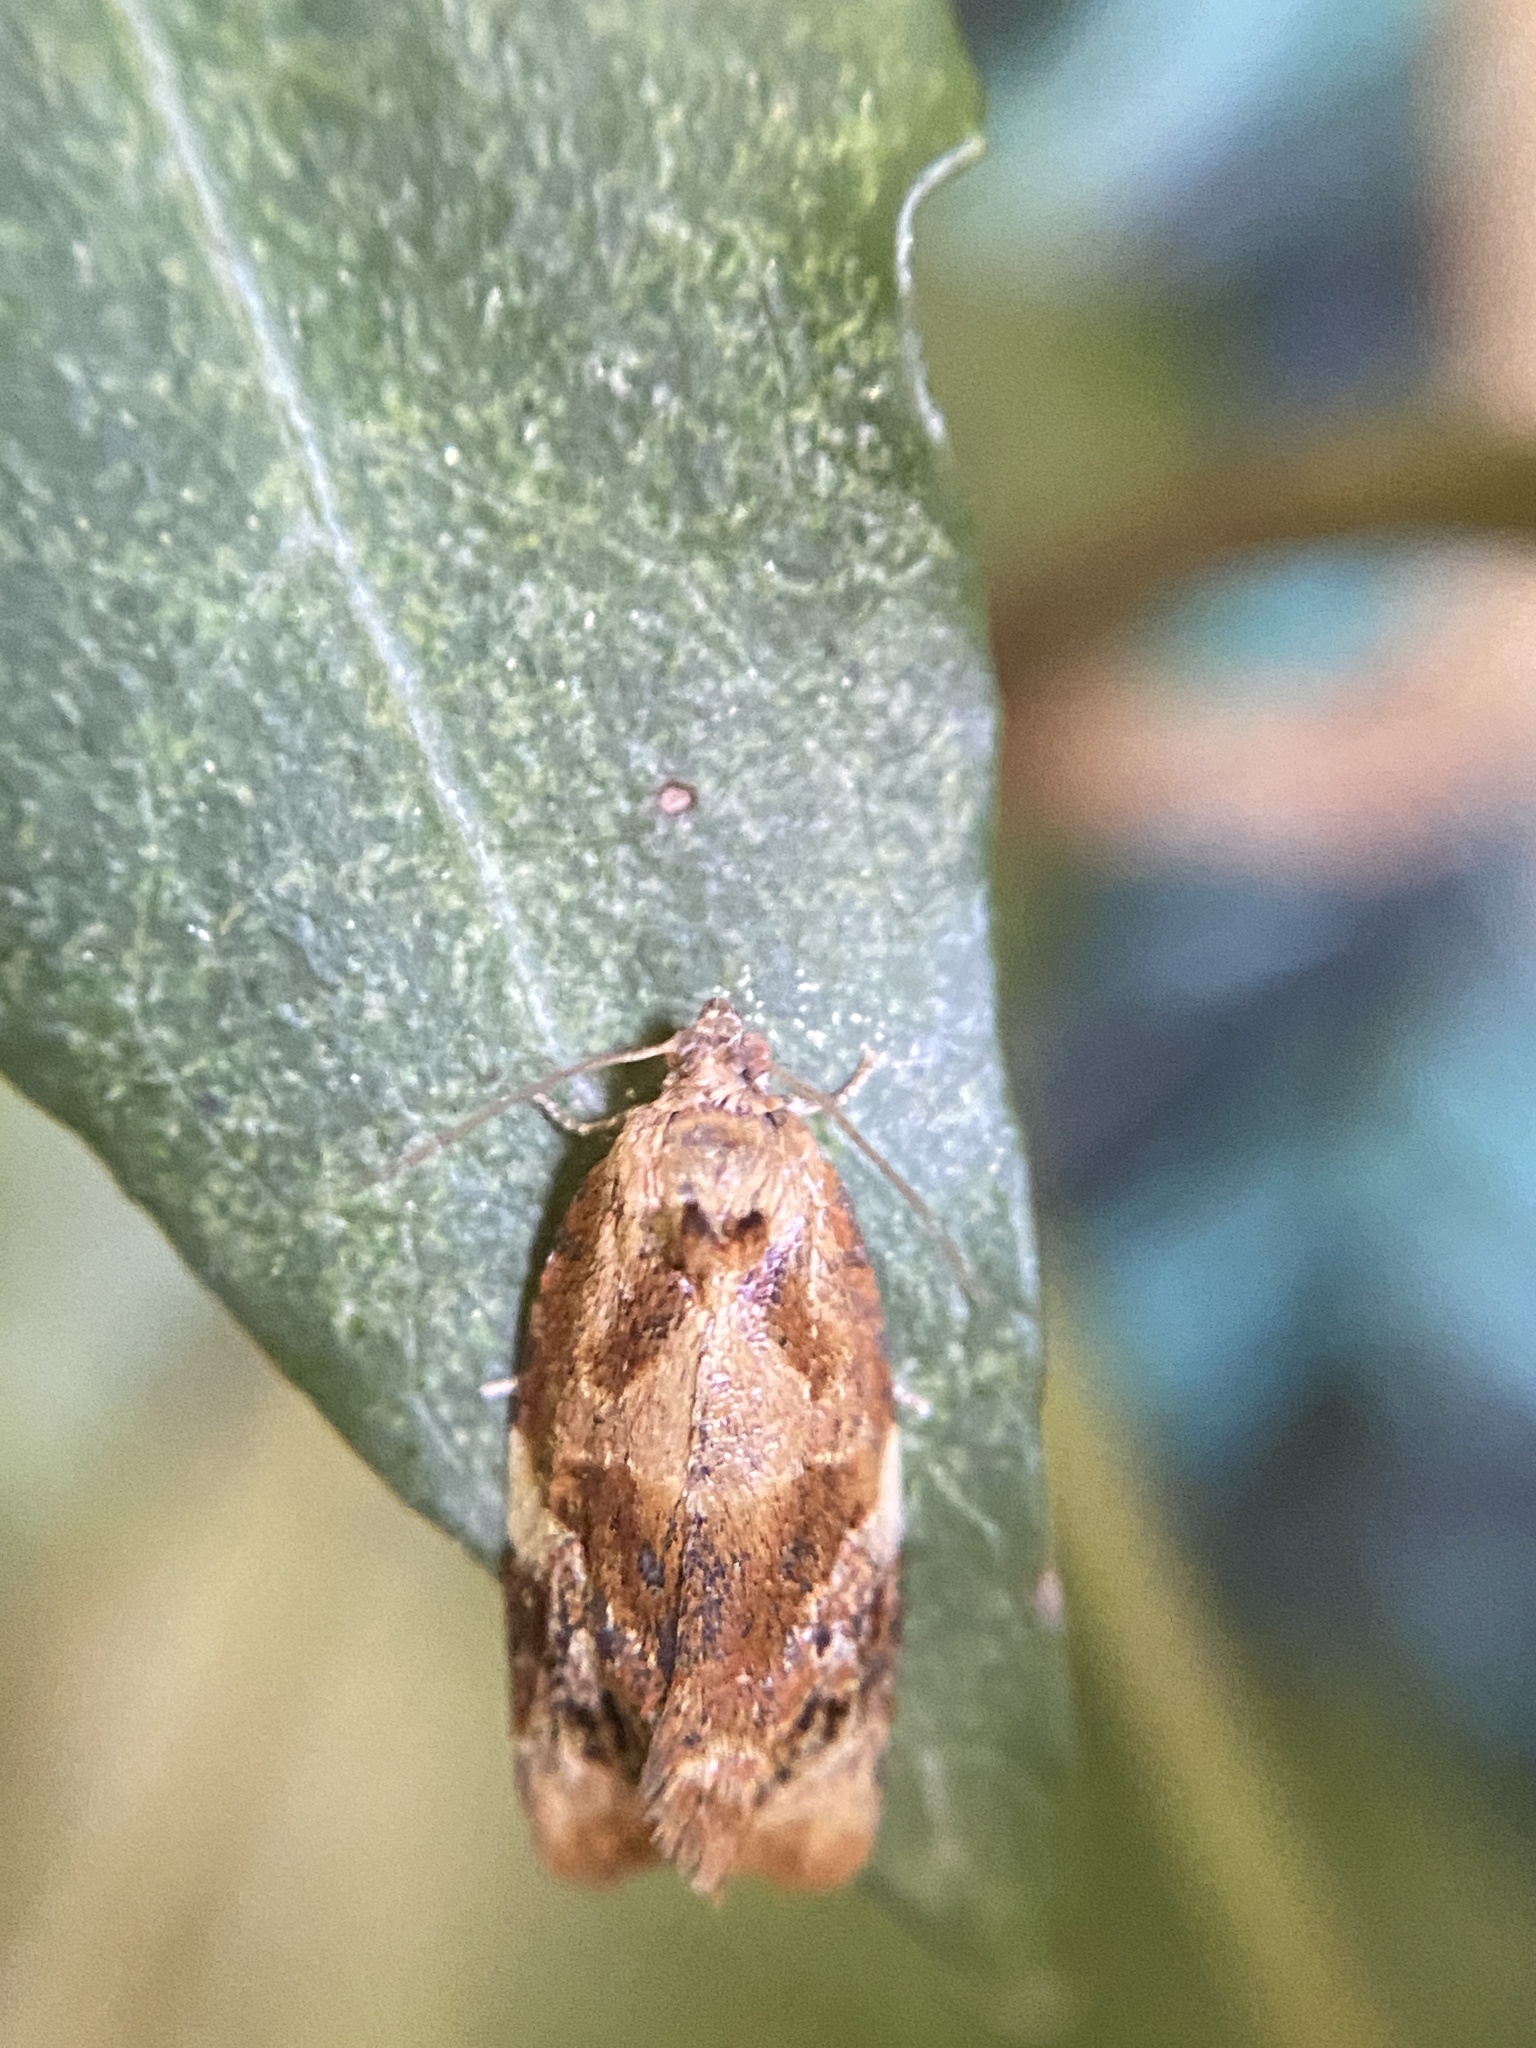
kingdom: Animalia
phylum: Arthropoda
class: Insecta
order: Lepidoptera
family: Tortricidae
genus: Ditula
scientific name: Ditula angustiorana
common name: Red-barred tortrix
